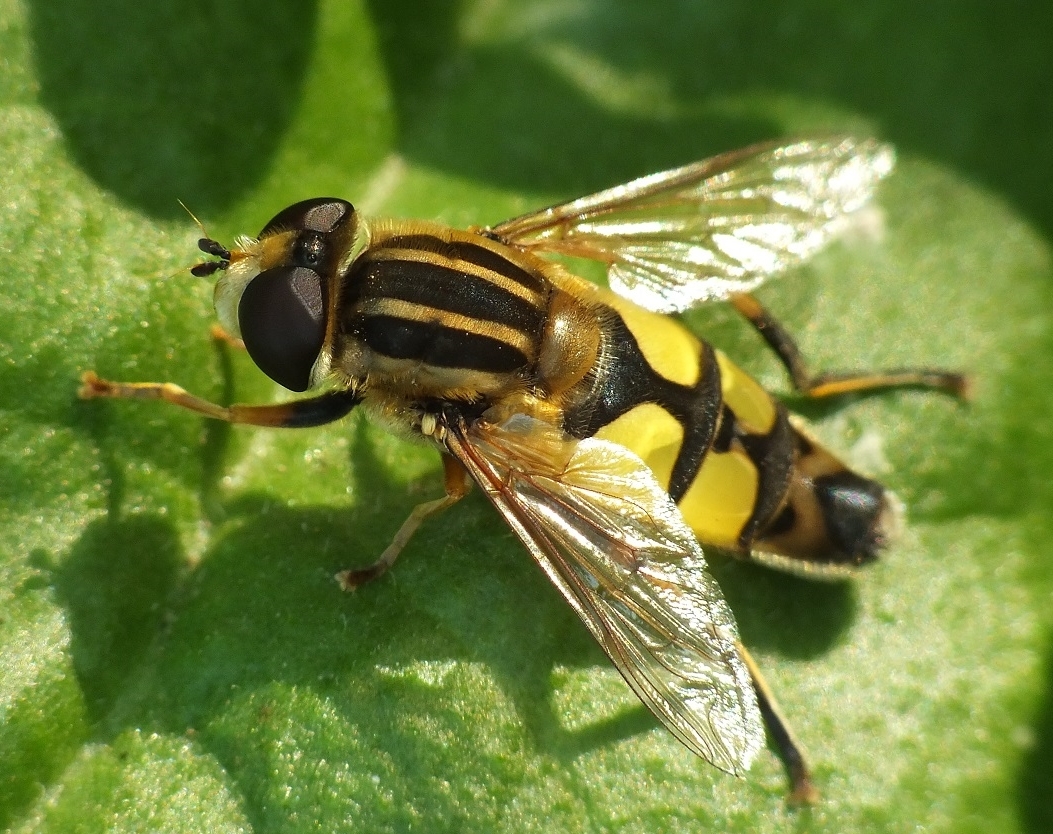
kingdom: Animalia
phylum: Arthropoda
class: Insecta
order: Diptera
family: Syrphidae
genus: Helophilus
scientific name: Helophilus trivittatus
